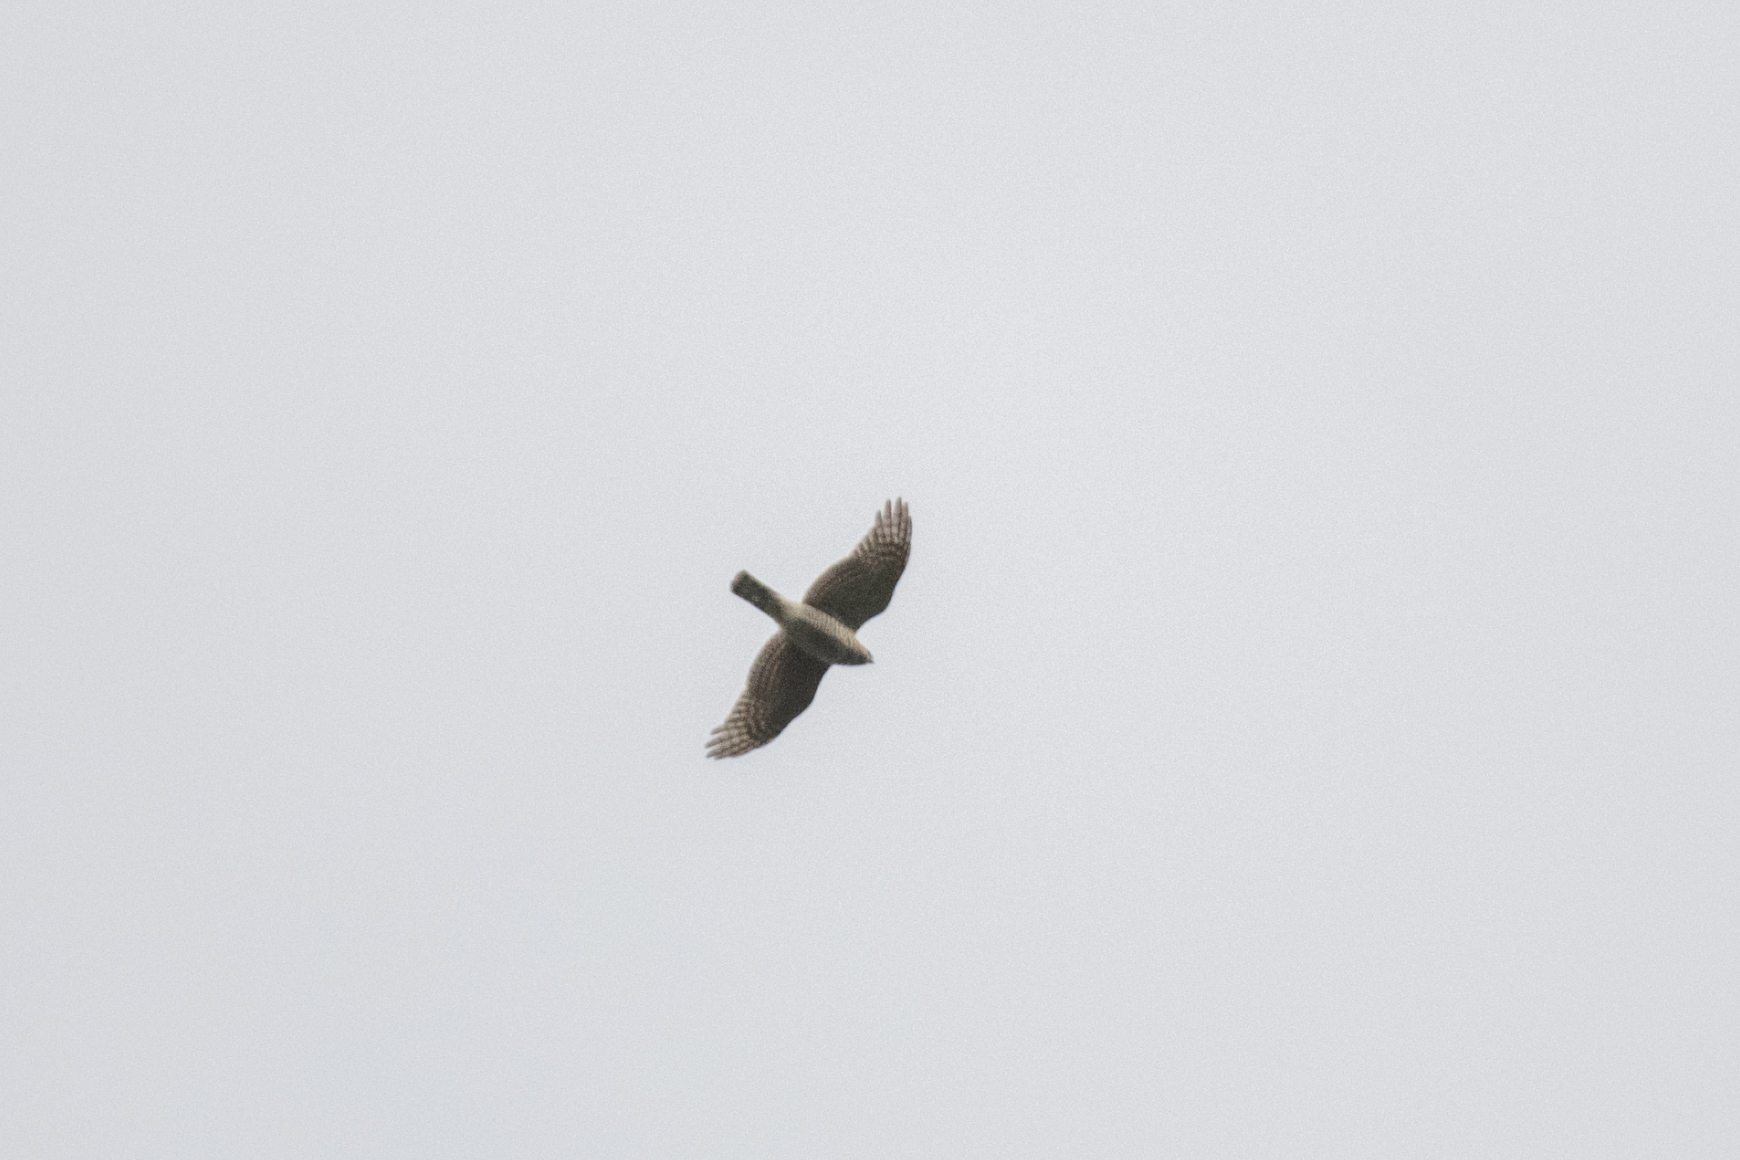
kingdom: Animalia
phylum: Chordata
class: Aves
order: Accipitriformes
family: Accipitridae
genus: Accipiter
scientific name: Accipiter nisus
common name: Eurasian sparrowhawk
